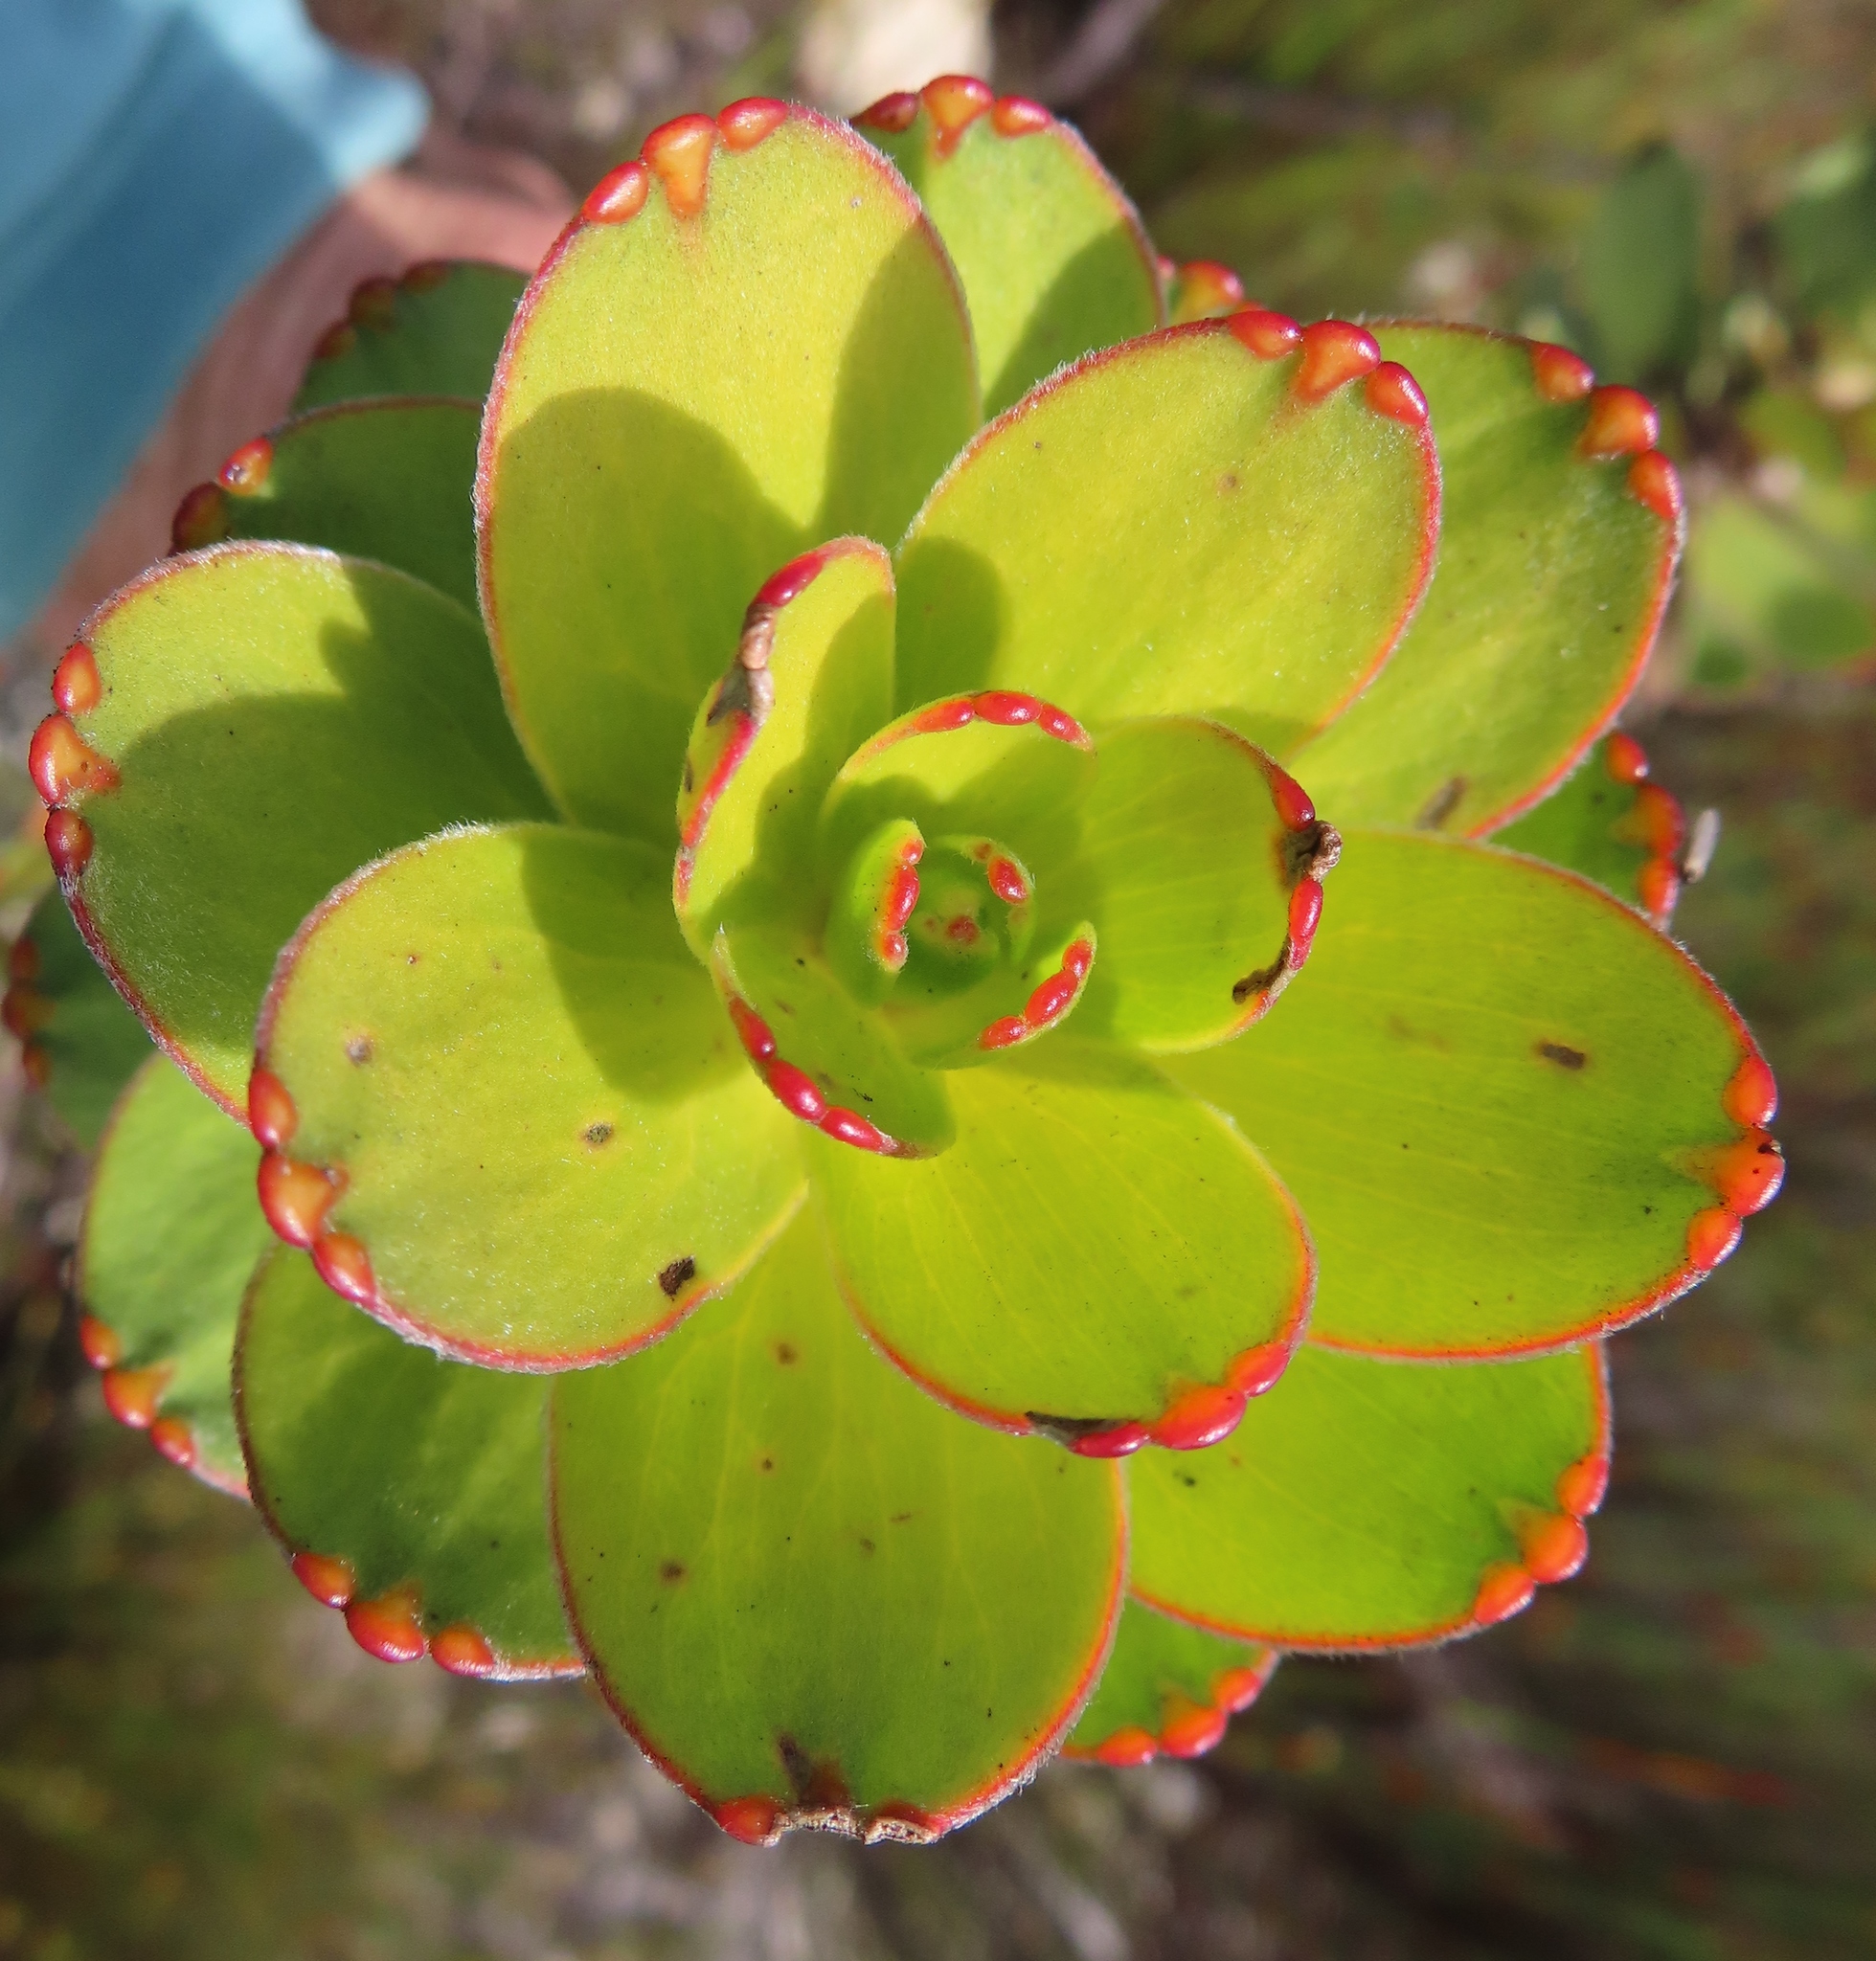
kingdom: Plantae
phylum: Tracheophyta
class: Magnoliopsida
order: Proteales
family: Proteaceae
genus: Mimetes
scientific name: Mimetes saxatilis
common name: Limestone pagoda
